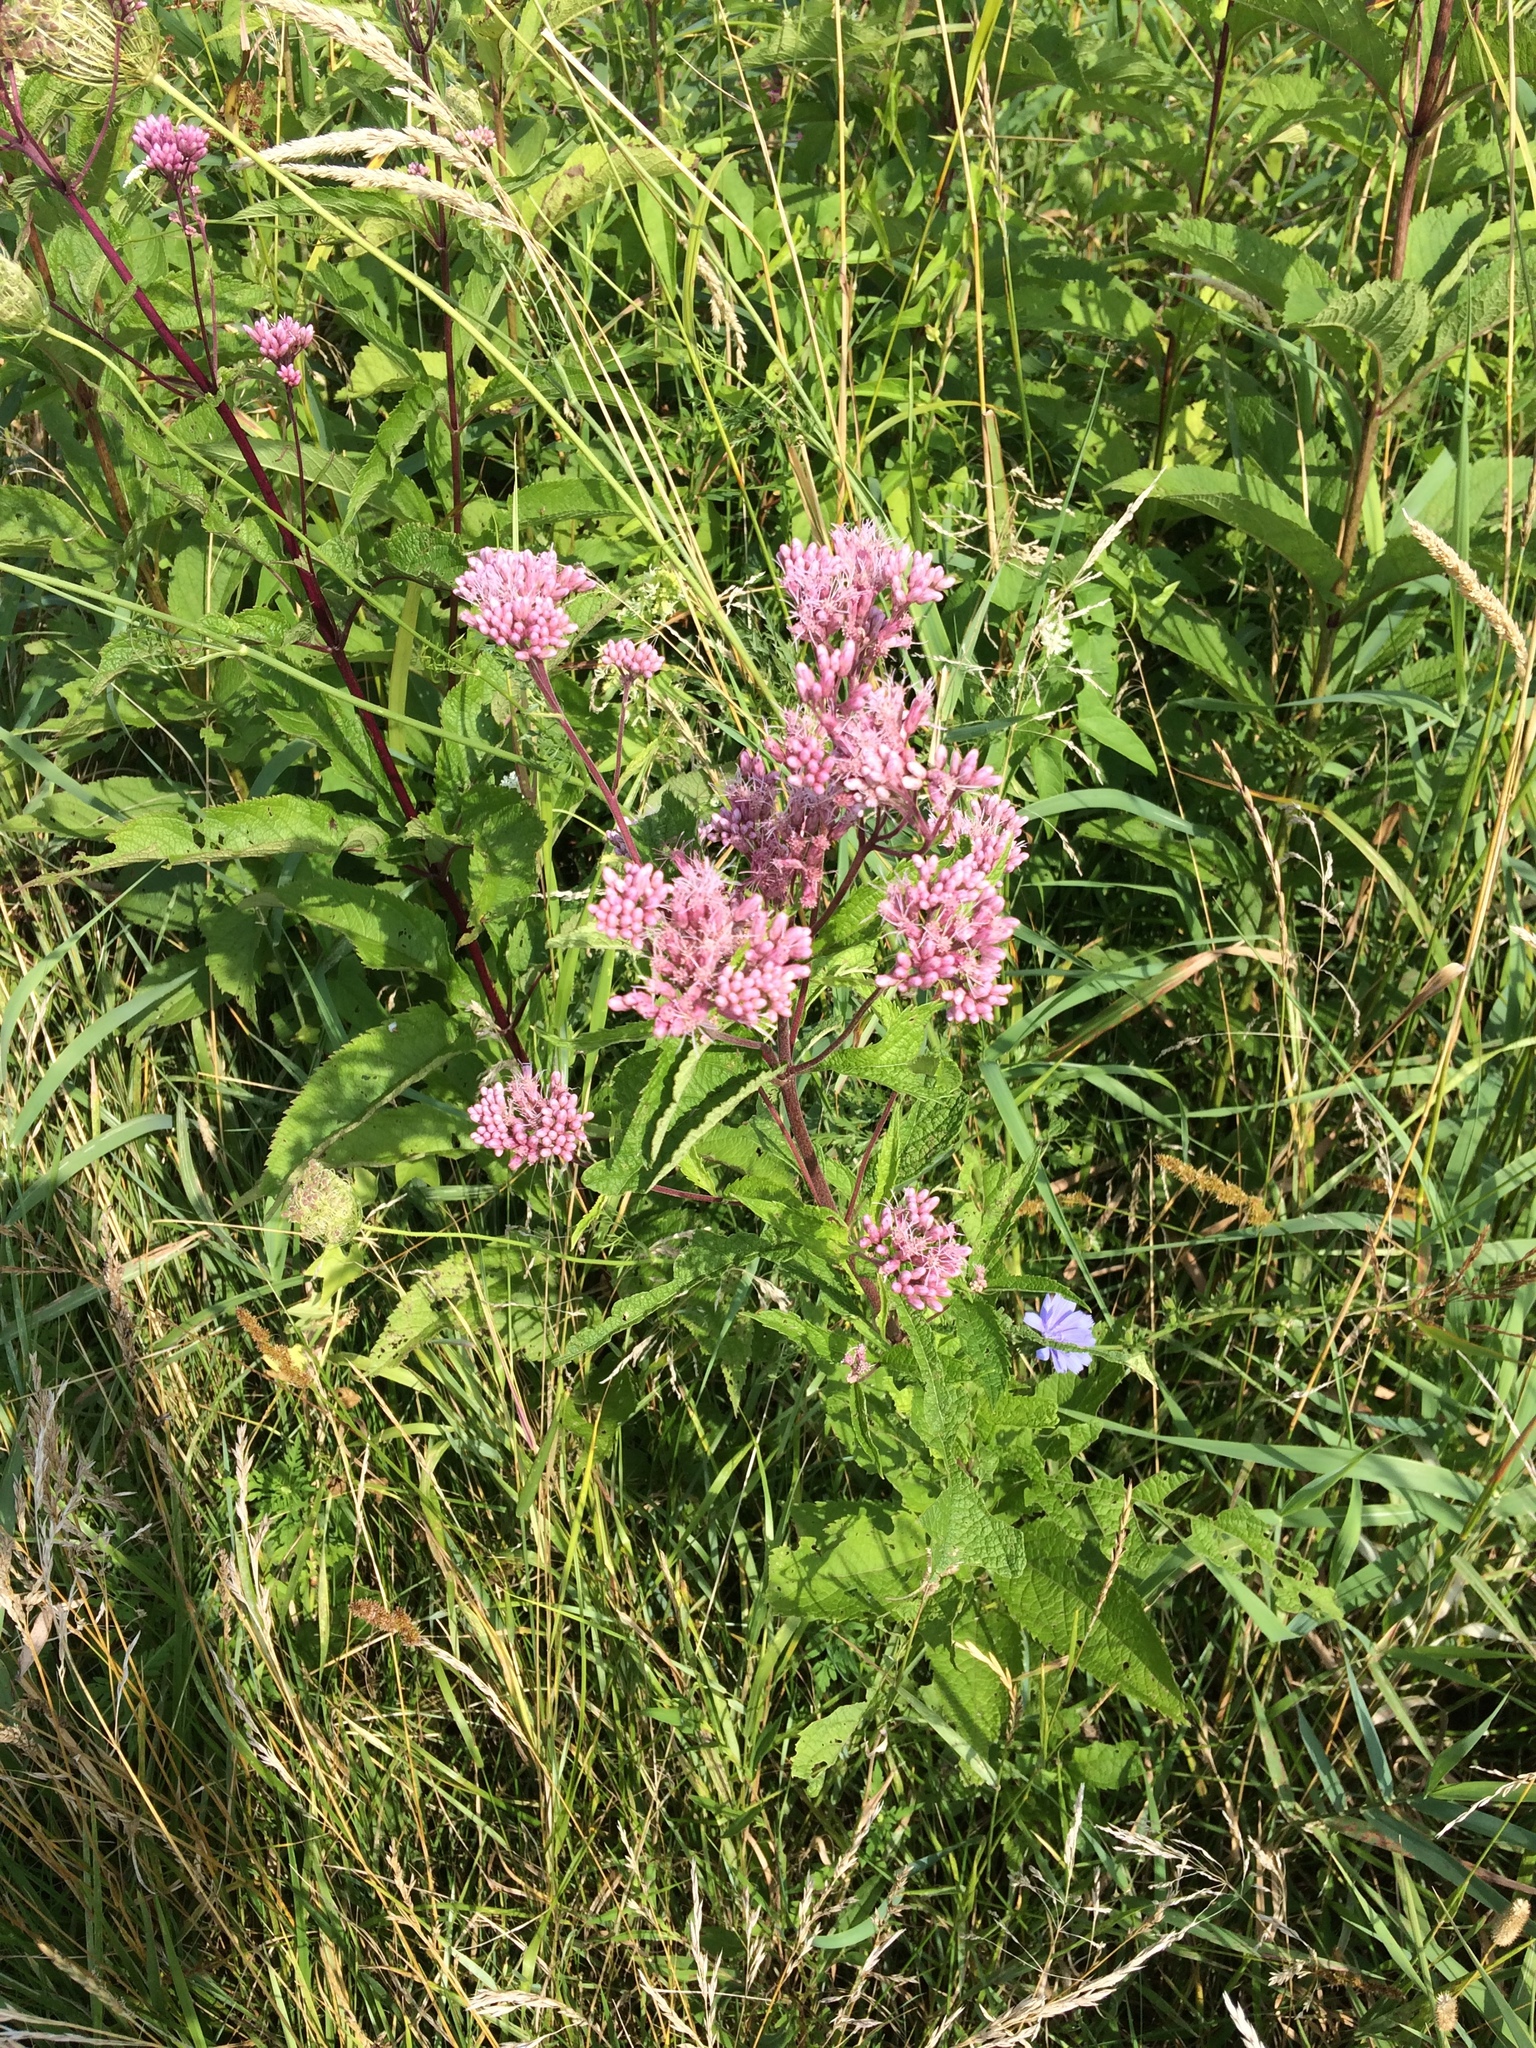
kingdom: Plantae
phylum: Tracheophyta
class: Magnoliopsida
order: Asterales
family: Asteraceae
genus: Eutrochium
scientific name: Eutrochium maculatum
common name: Spotted joe pye weed
